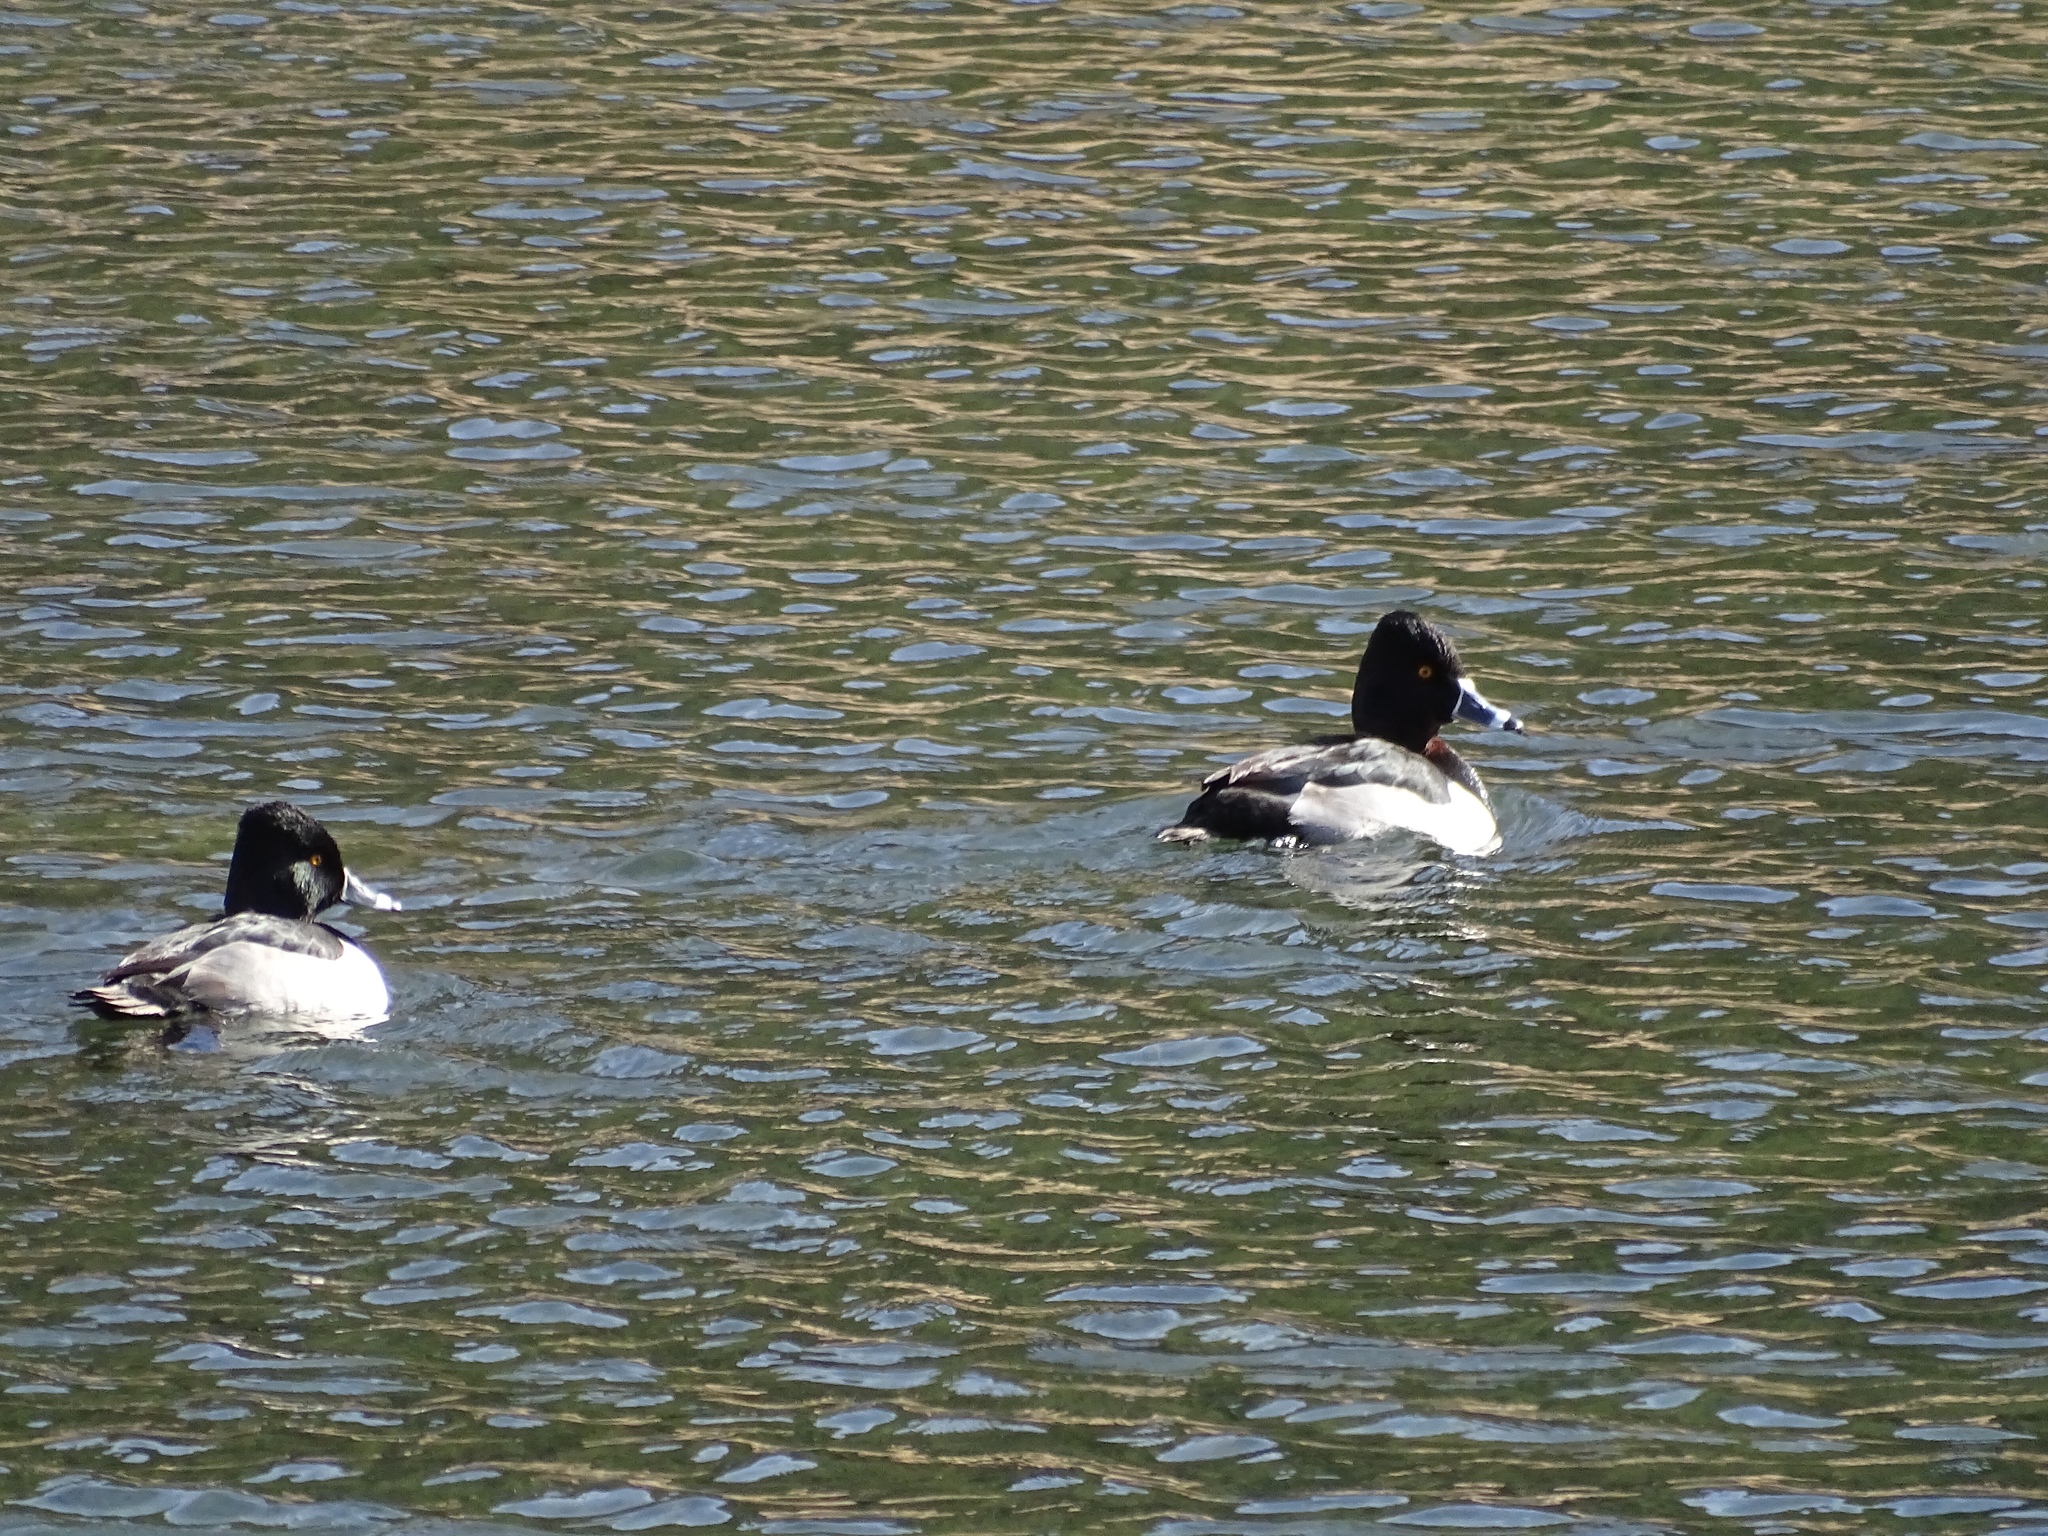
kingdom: Animalia
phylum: Chordata
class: Aves
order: Anseriformes
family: Anatidae
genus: Aythya
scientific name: Aythya collaris
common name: Ring-necked duck
